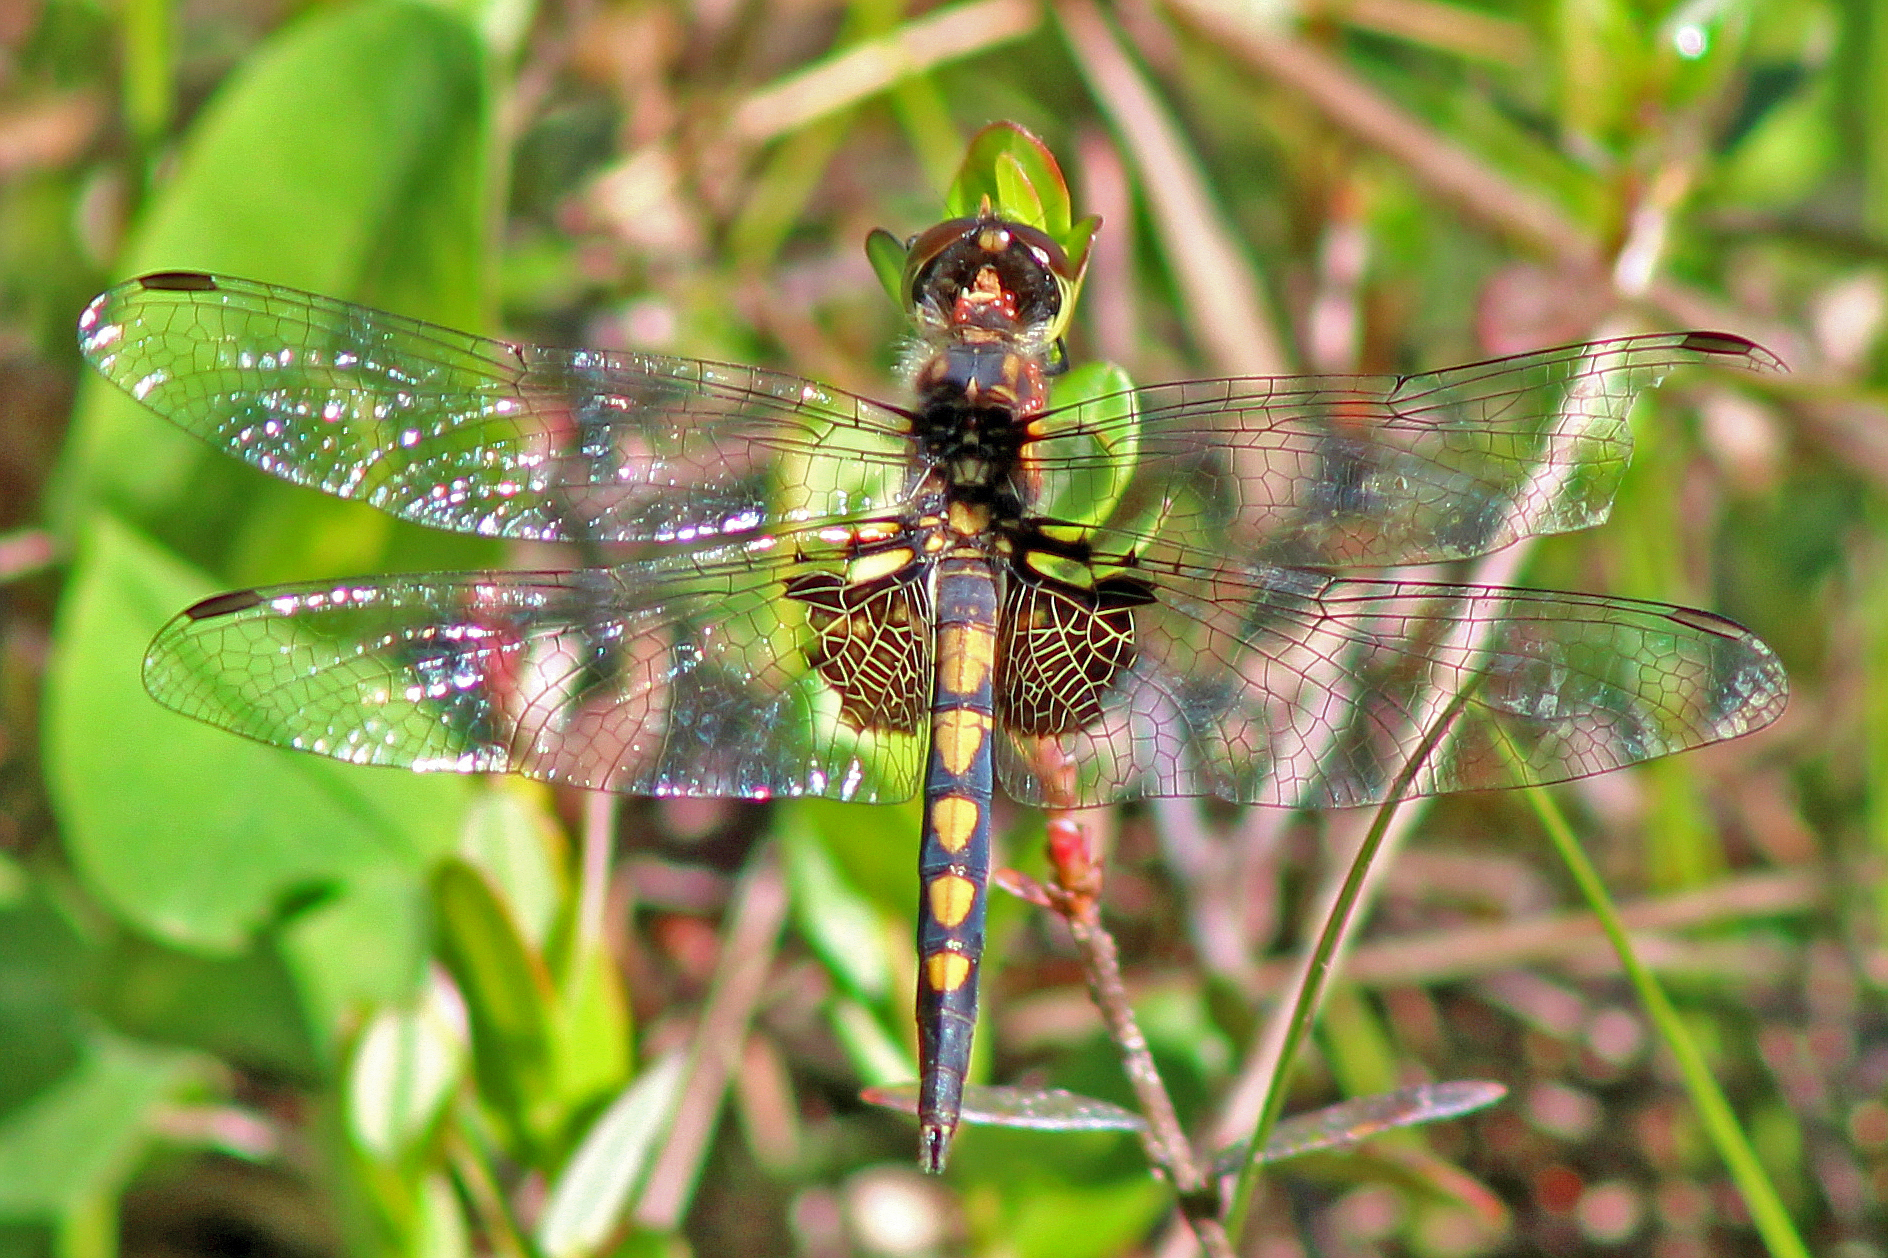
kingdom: Animalia
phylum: Arthropoda
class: Insecta
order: Odonata
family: Libellulidae
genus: Celithemis
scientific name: Celithemis martha
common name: Martha's pennant
